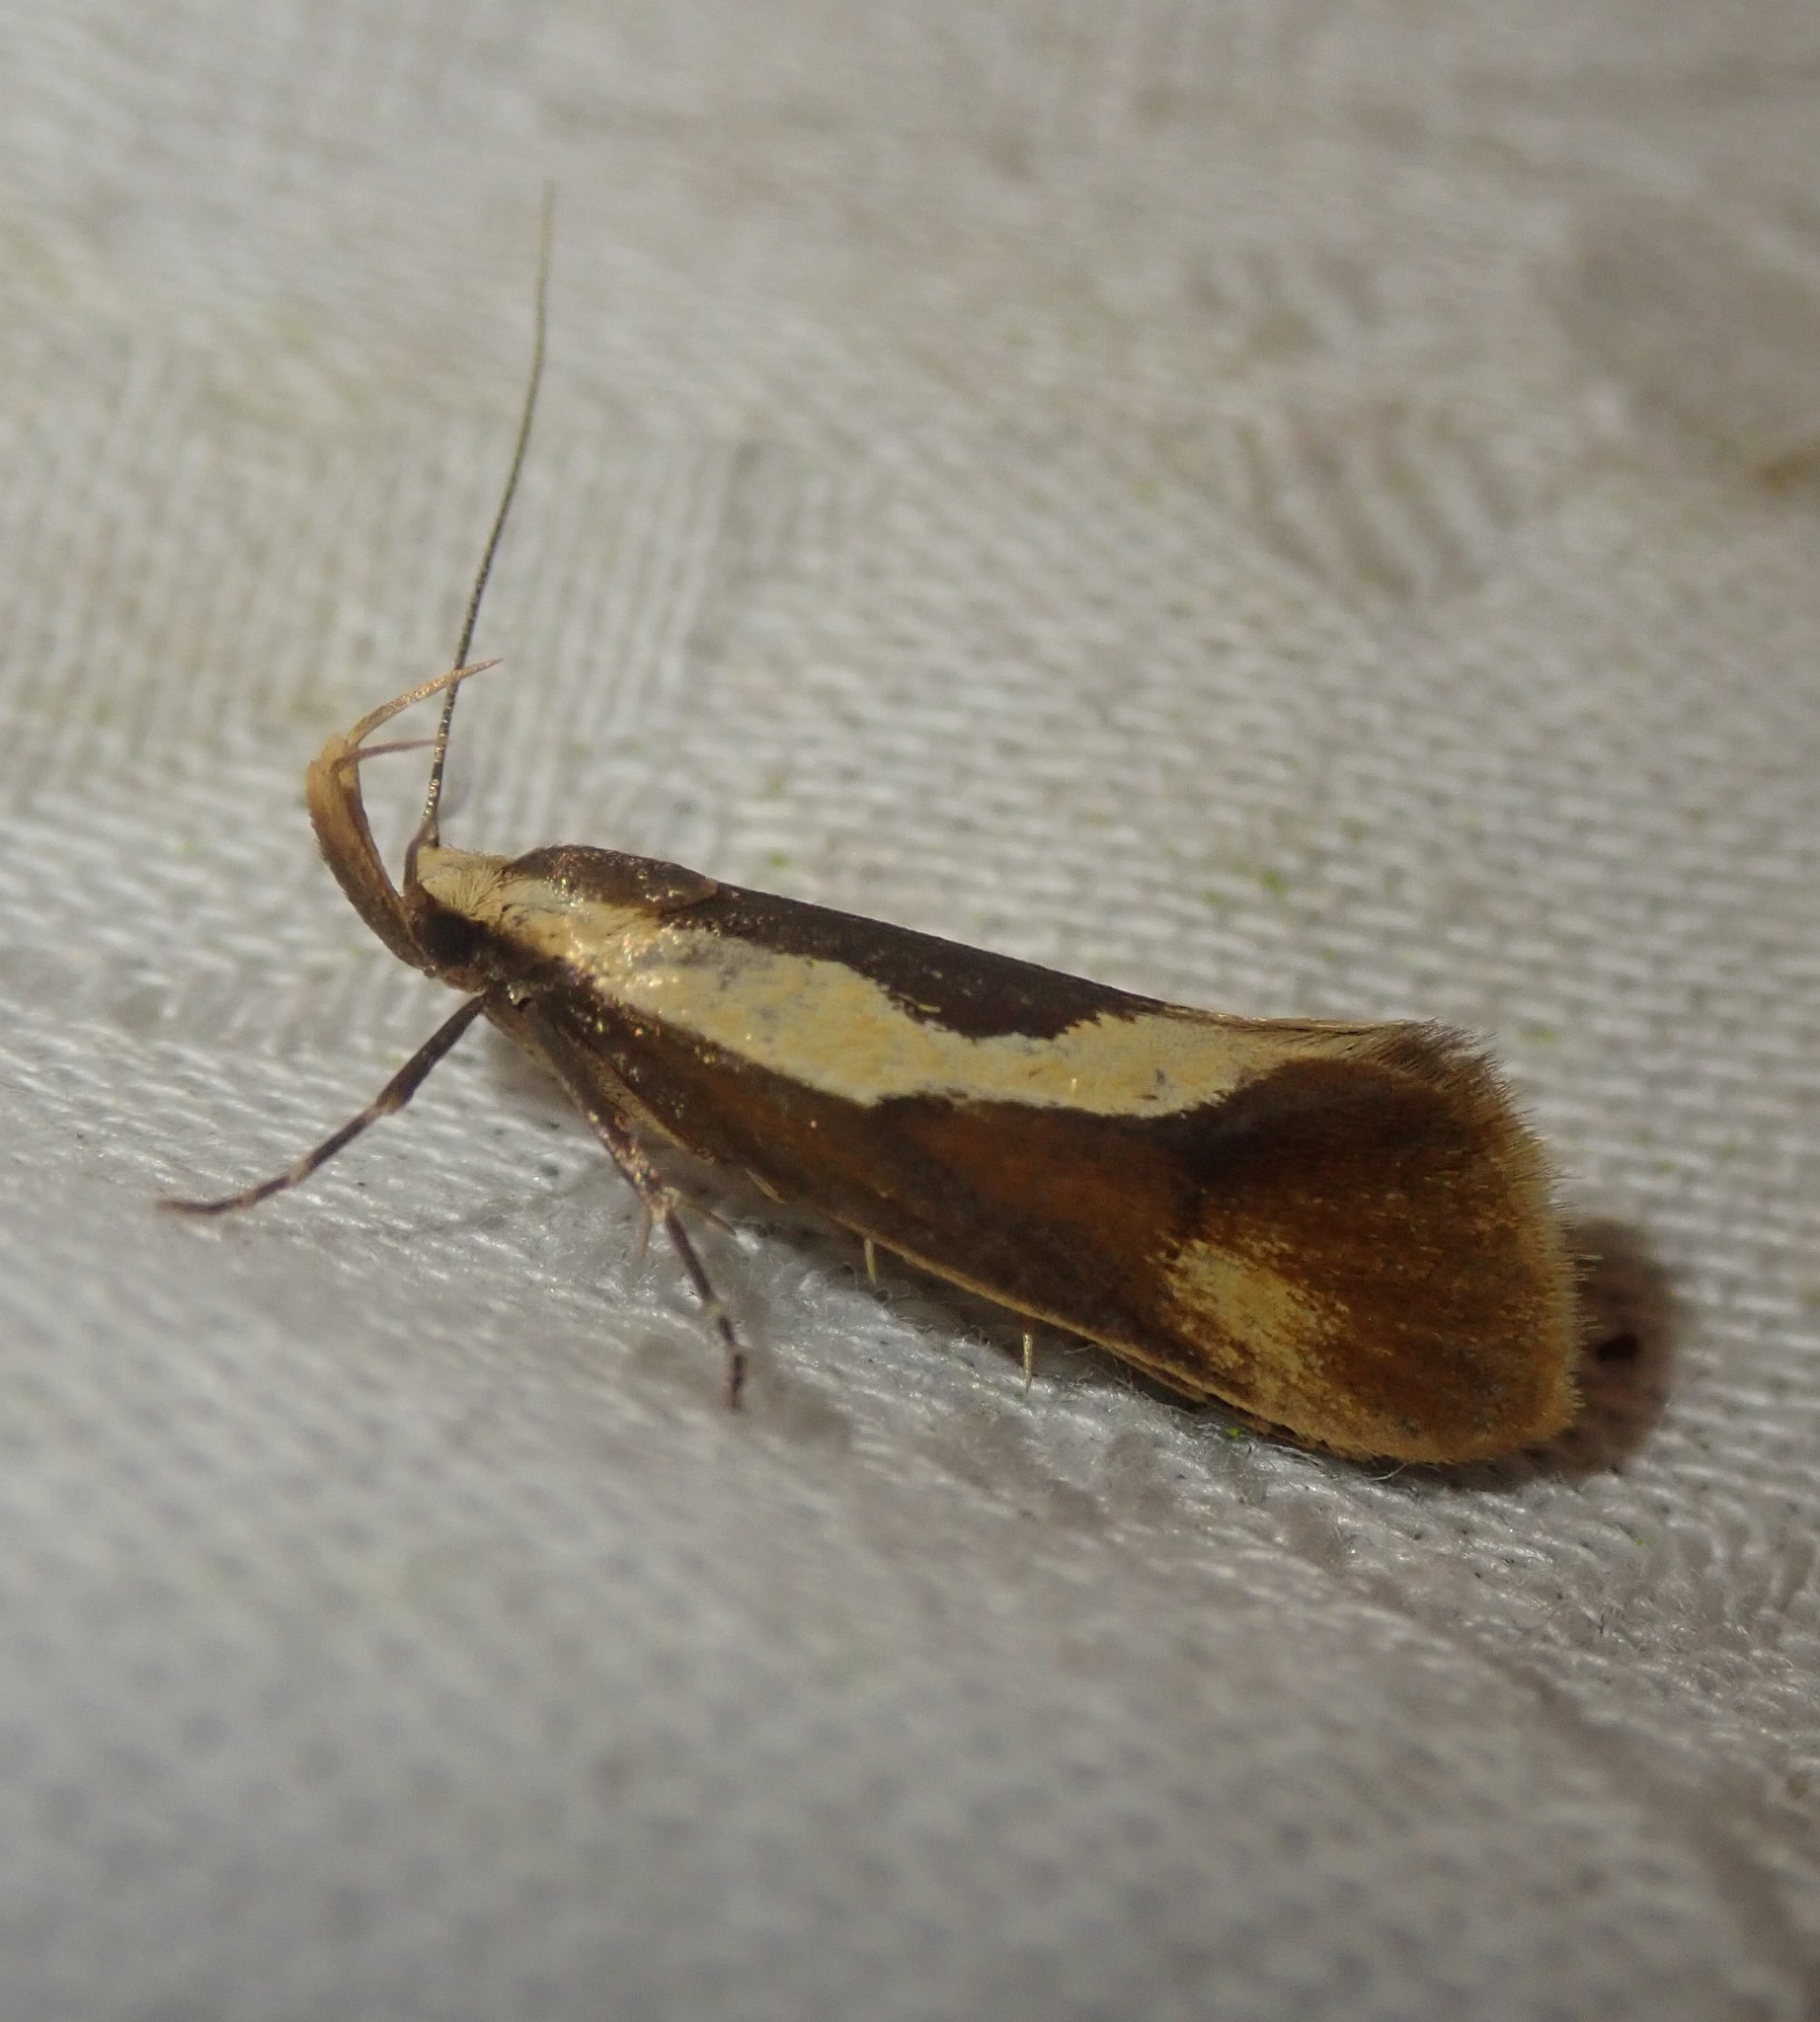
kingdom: Animalia
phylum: Arthropoda
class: Insecta
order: Lepidoptera
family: Oecophoridae
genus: Harpella
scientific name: Harpella forficella
